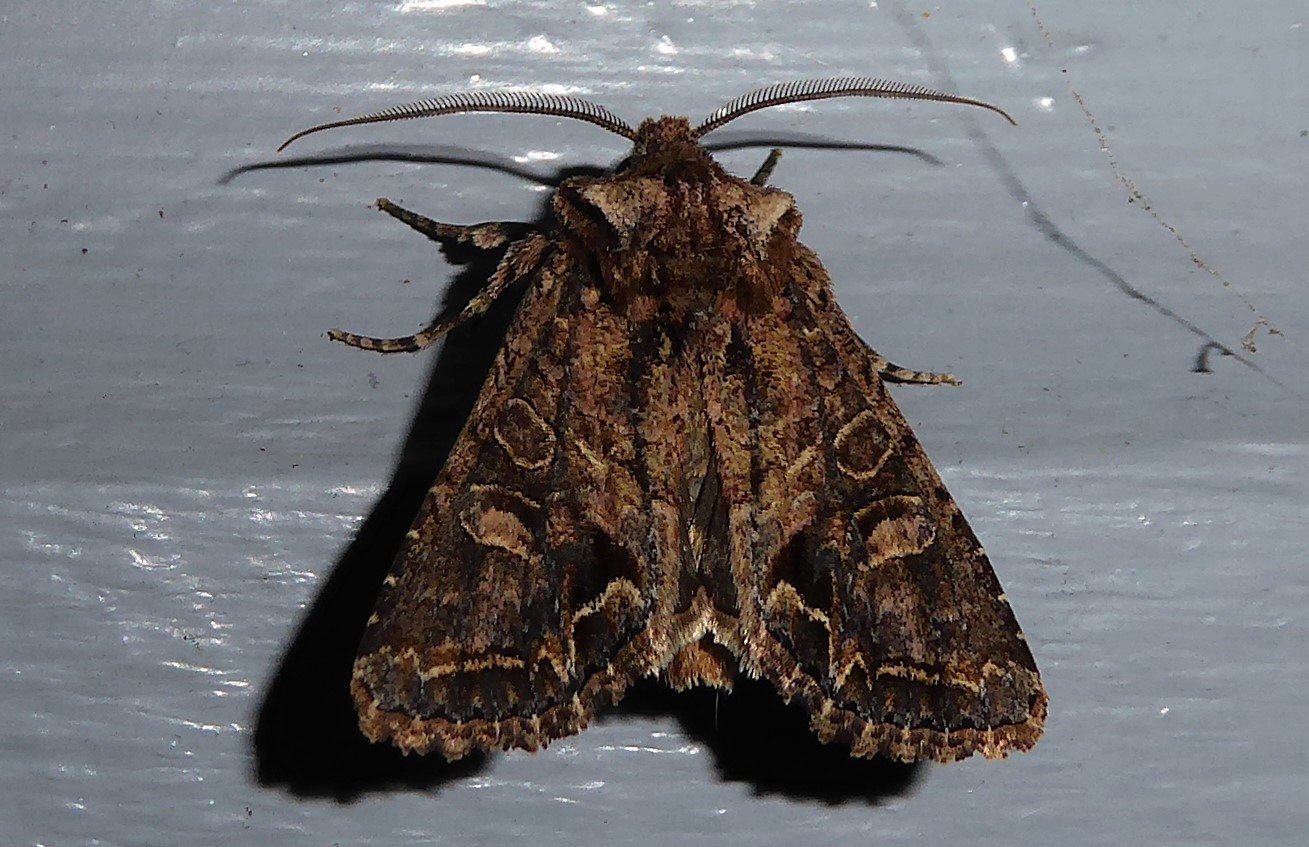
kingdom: Animalia
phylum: Arthropoda
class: Insecta
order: Lepidoptera
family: Noctuidae
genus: Ichneutica
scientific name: Ichneutica skelloni
